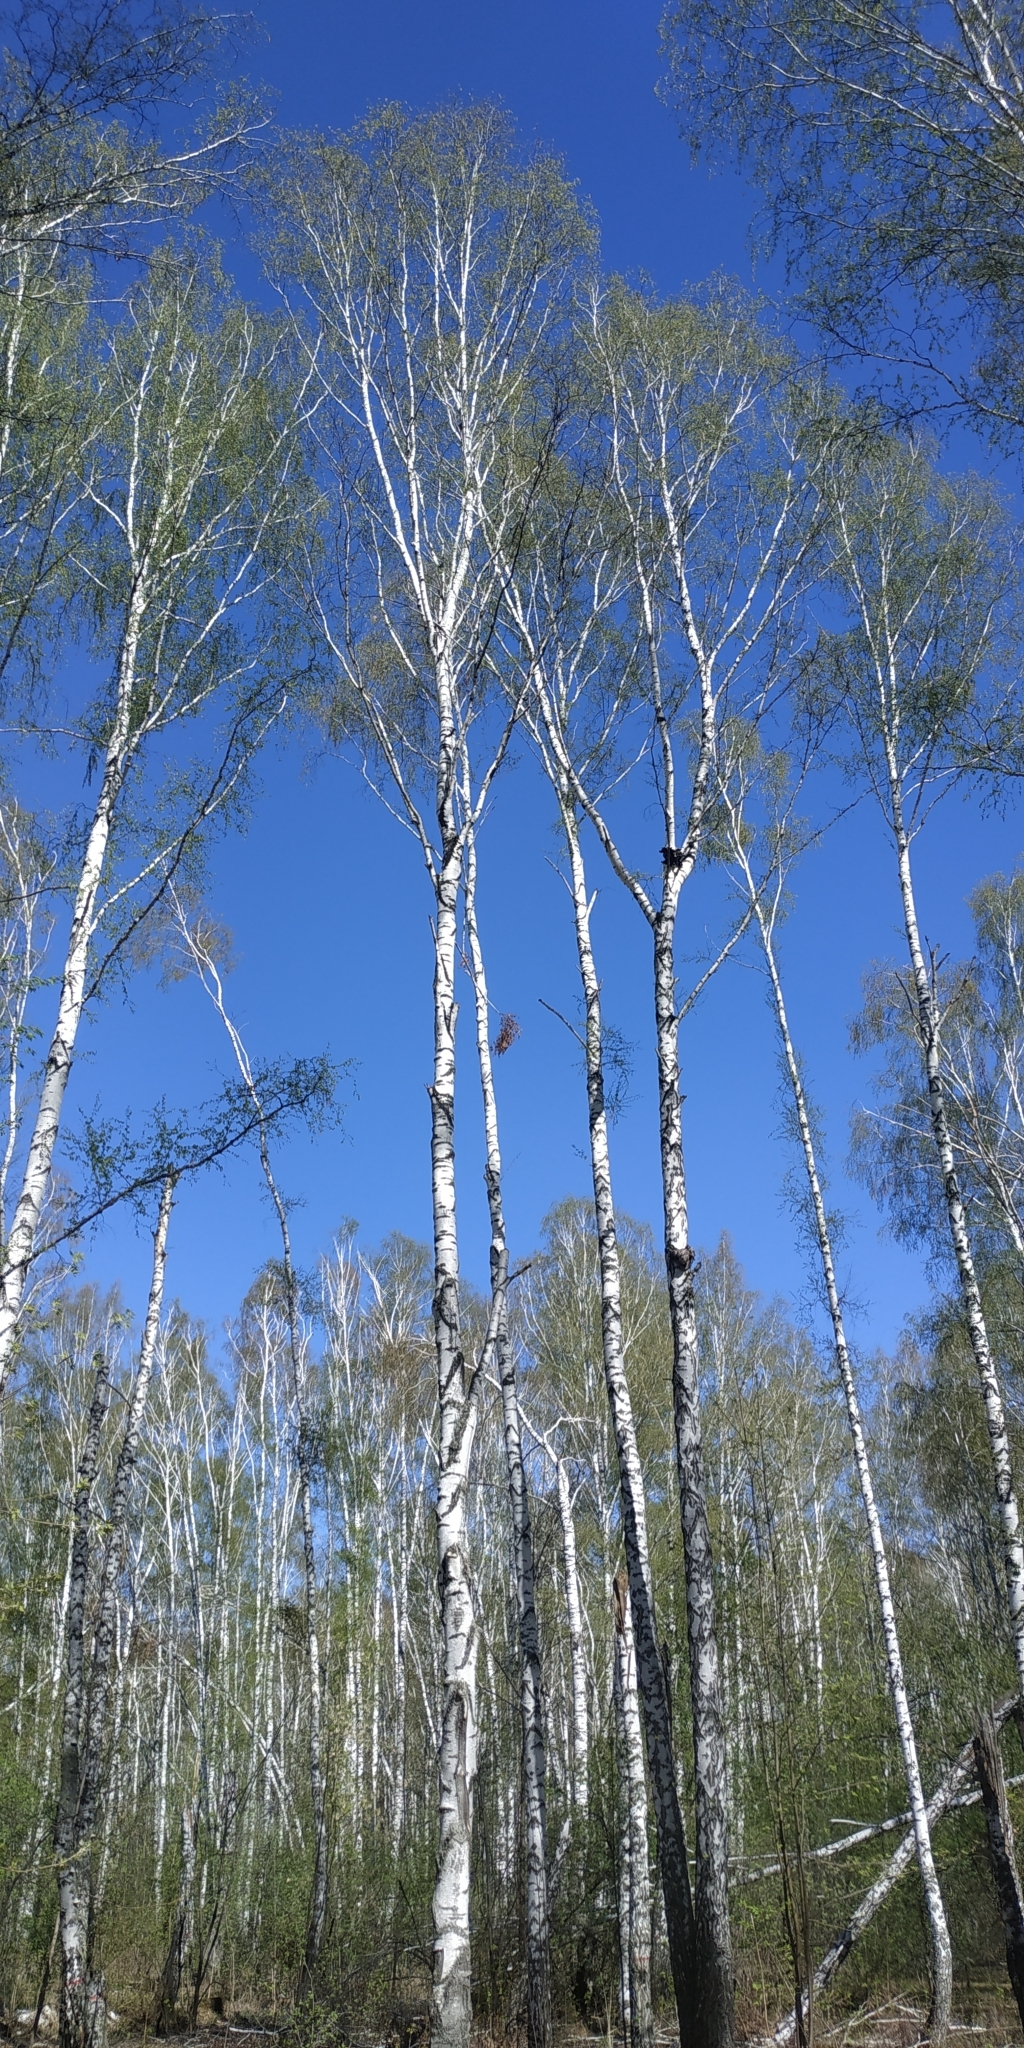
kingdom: Plantae
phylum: Tracheophyta
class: Magnoliopsida
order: Fagales
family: Betulaceae
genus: Betula
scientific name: Betula pubescens
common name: Downy birch
